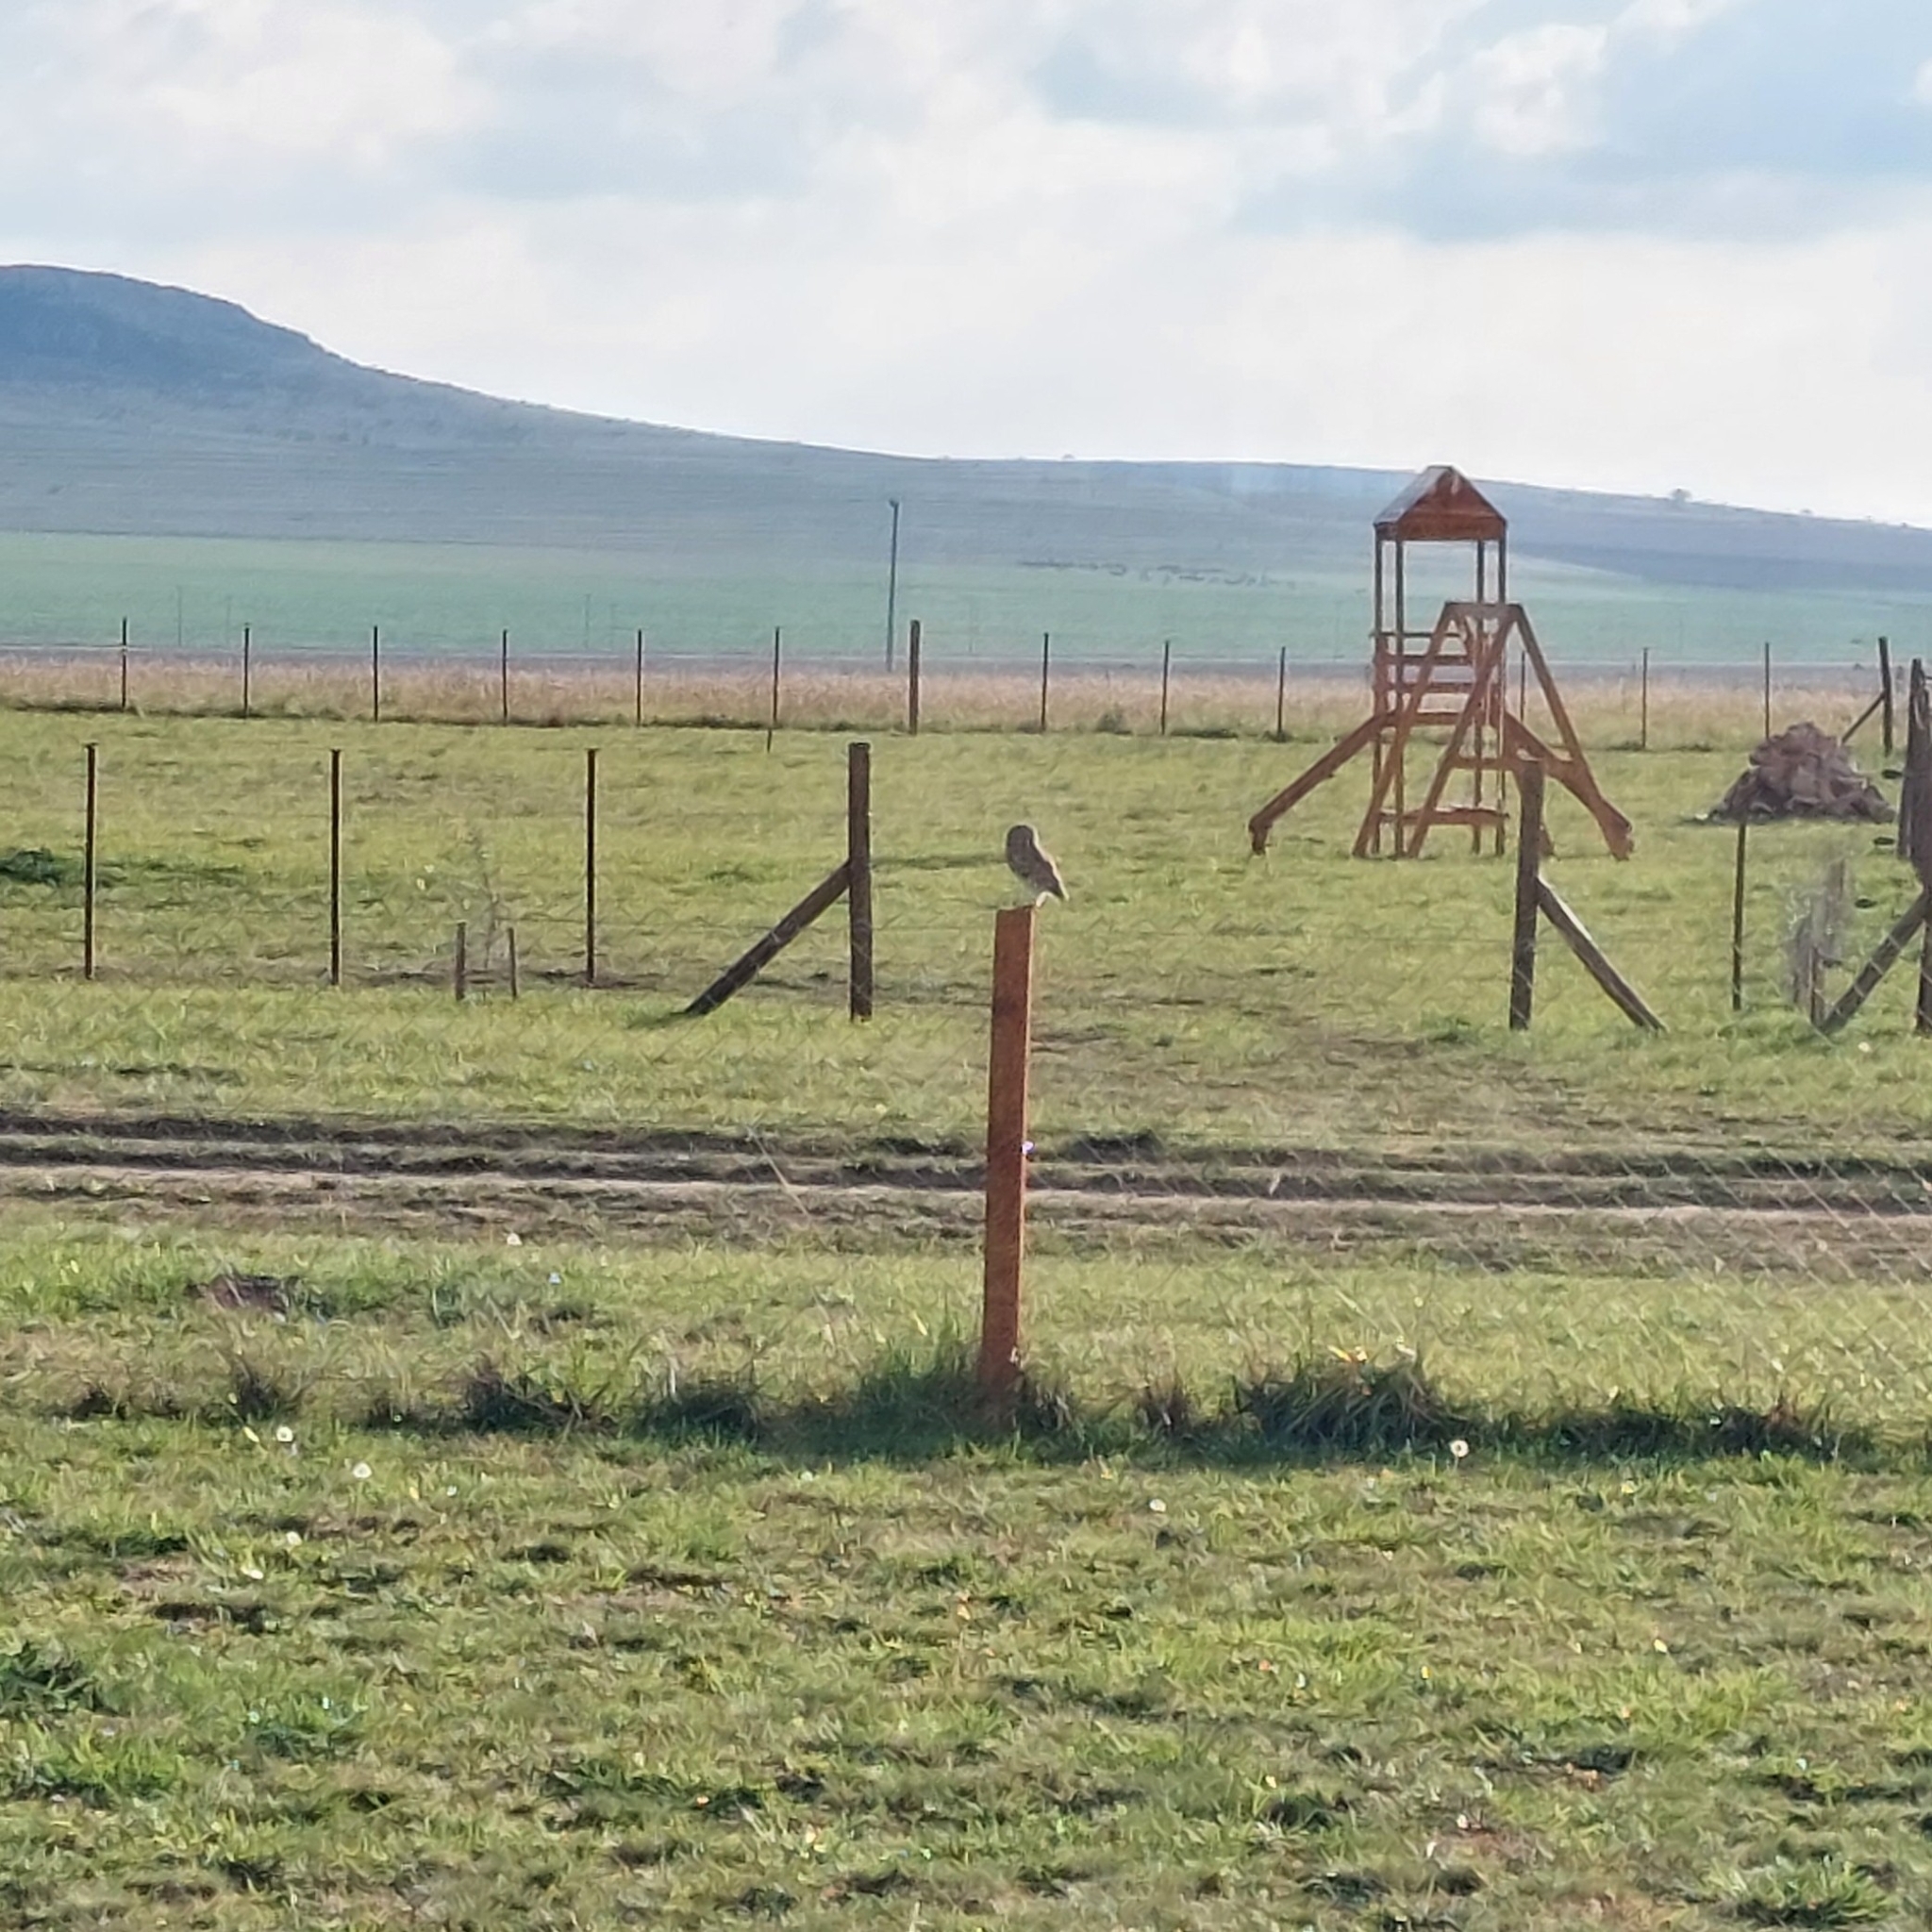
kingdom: Animalia
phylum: Chordata
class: Aves
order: Strigiformes
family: Strigidae
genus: Athene
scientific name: Athene cunicularia
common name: Burrowing owl
